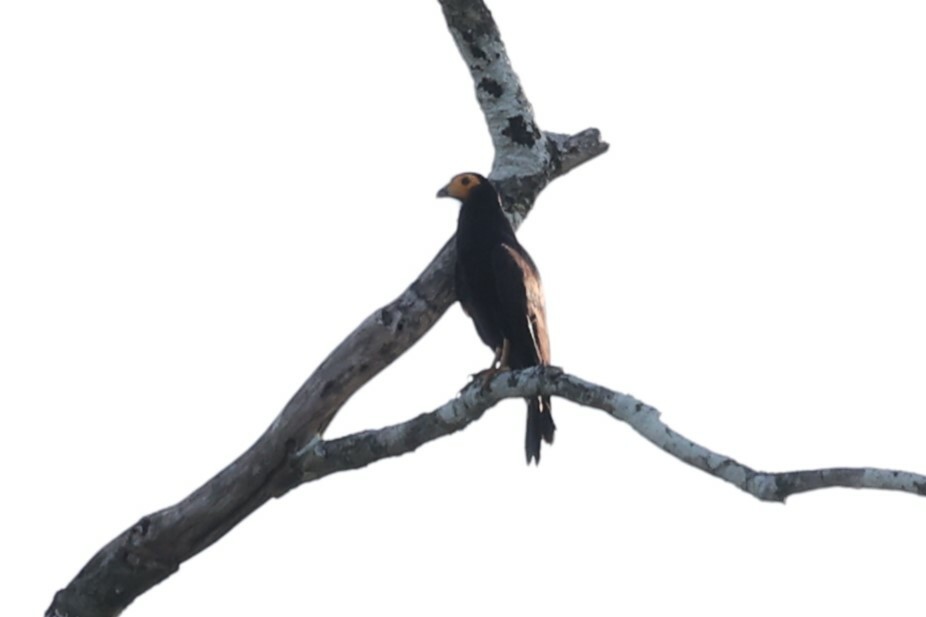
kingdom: Animalia
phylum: Chordata
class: Aves
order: Falconiformes
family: Falconidae
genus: Daptrius
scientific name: Daptrius ater
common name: Black caracara
